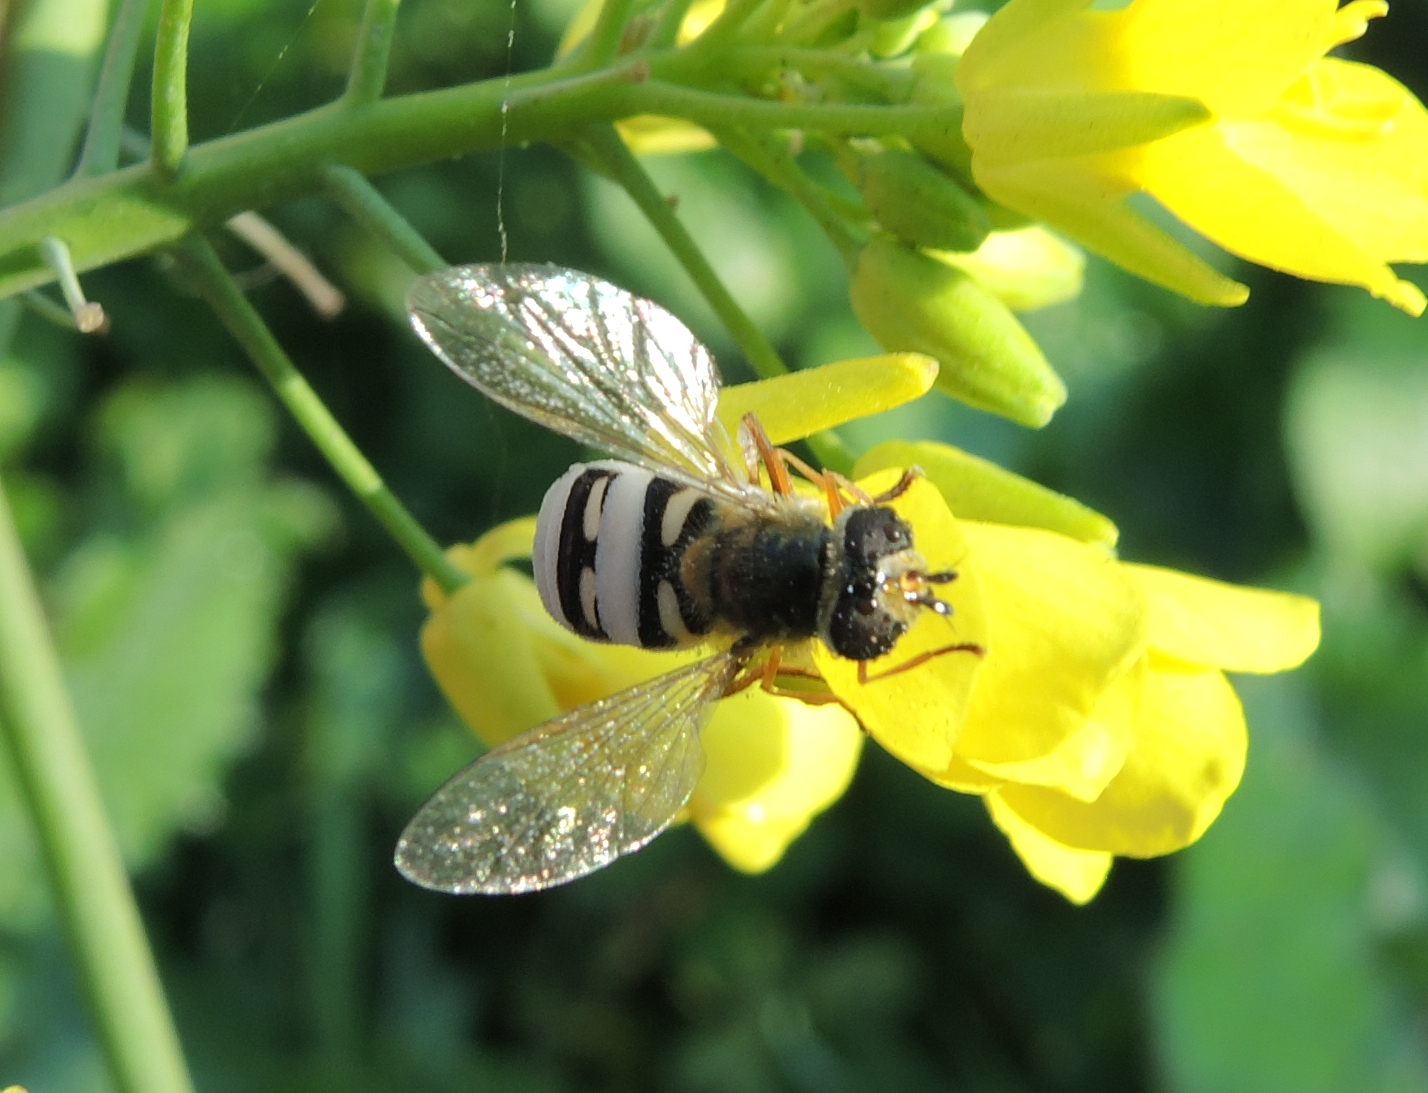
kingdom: Animalia
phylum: Arthropoda
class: Insecta
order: Diptera
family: Syrphidae
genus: Eupeodes
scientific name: Eupeodes corollae
